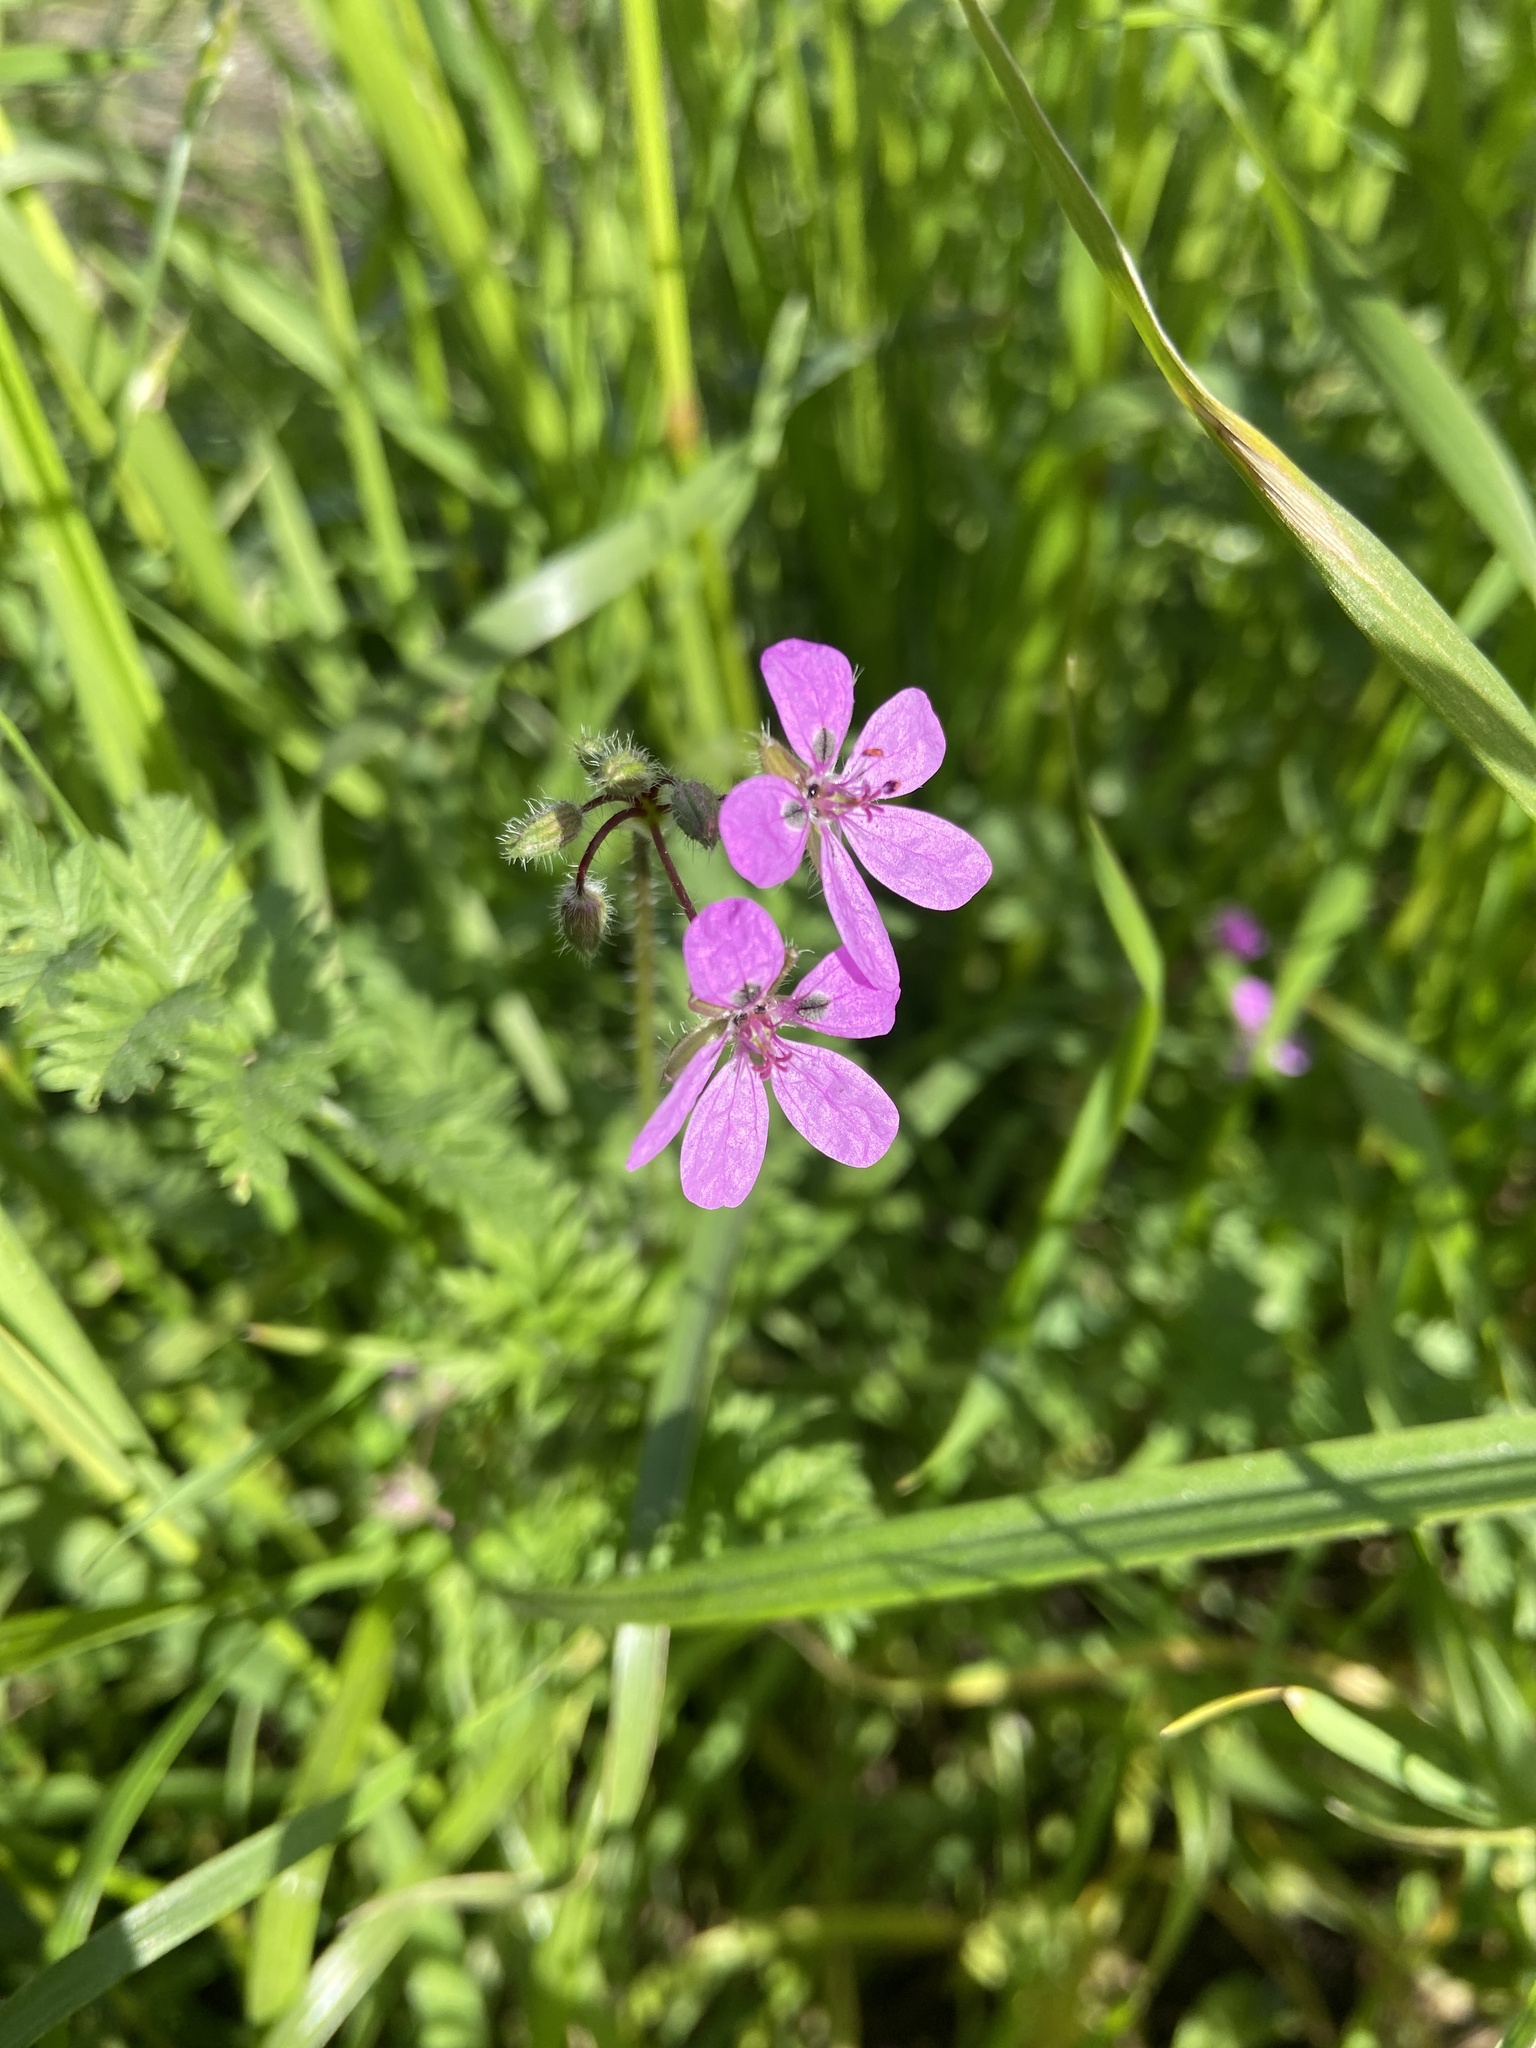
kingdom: Plantae
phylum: Tracheophyta
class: Magnoliopsida
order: Geraniales
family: Geraniaceae
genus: Erodium
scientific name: Erodium cicutarium
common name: Common stork's-bill
